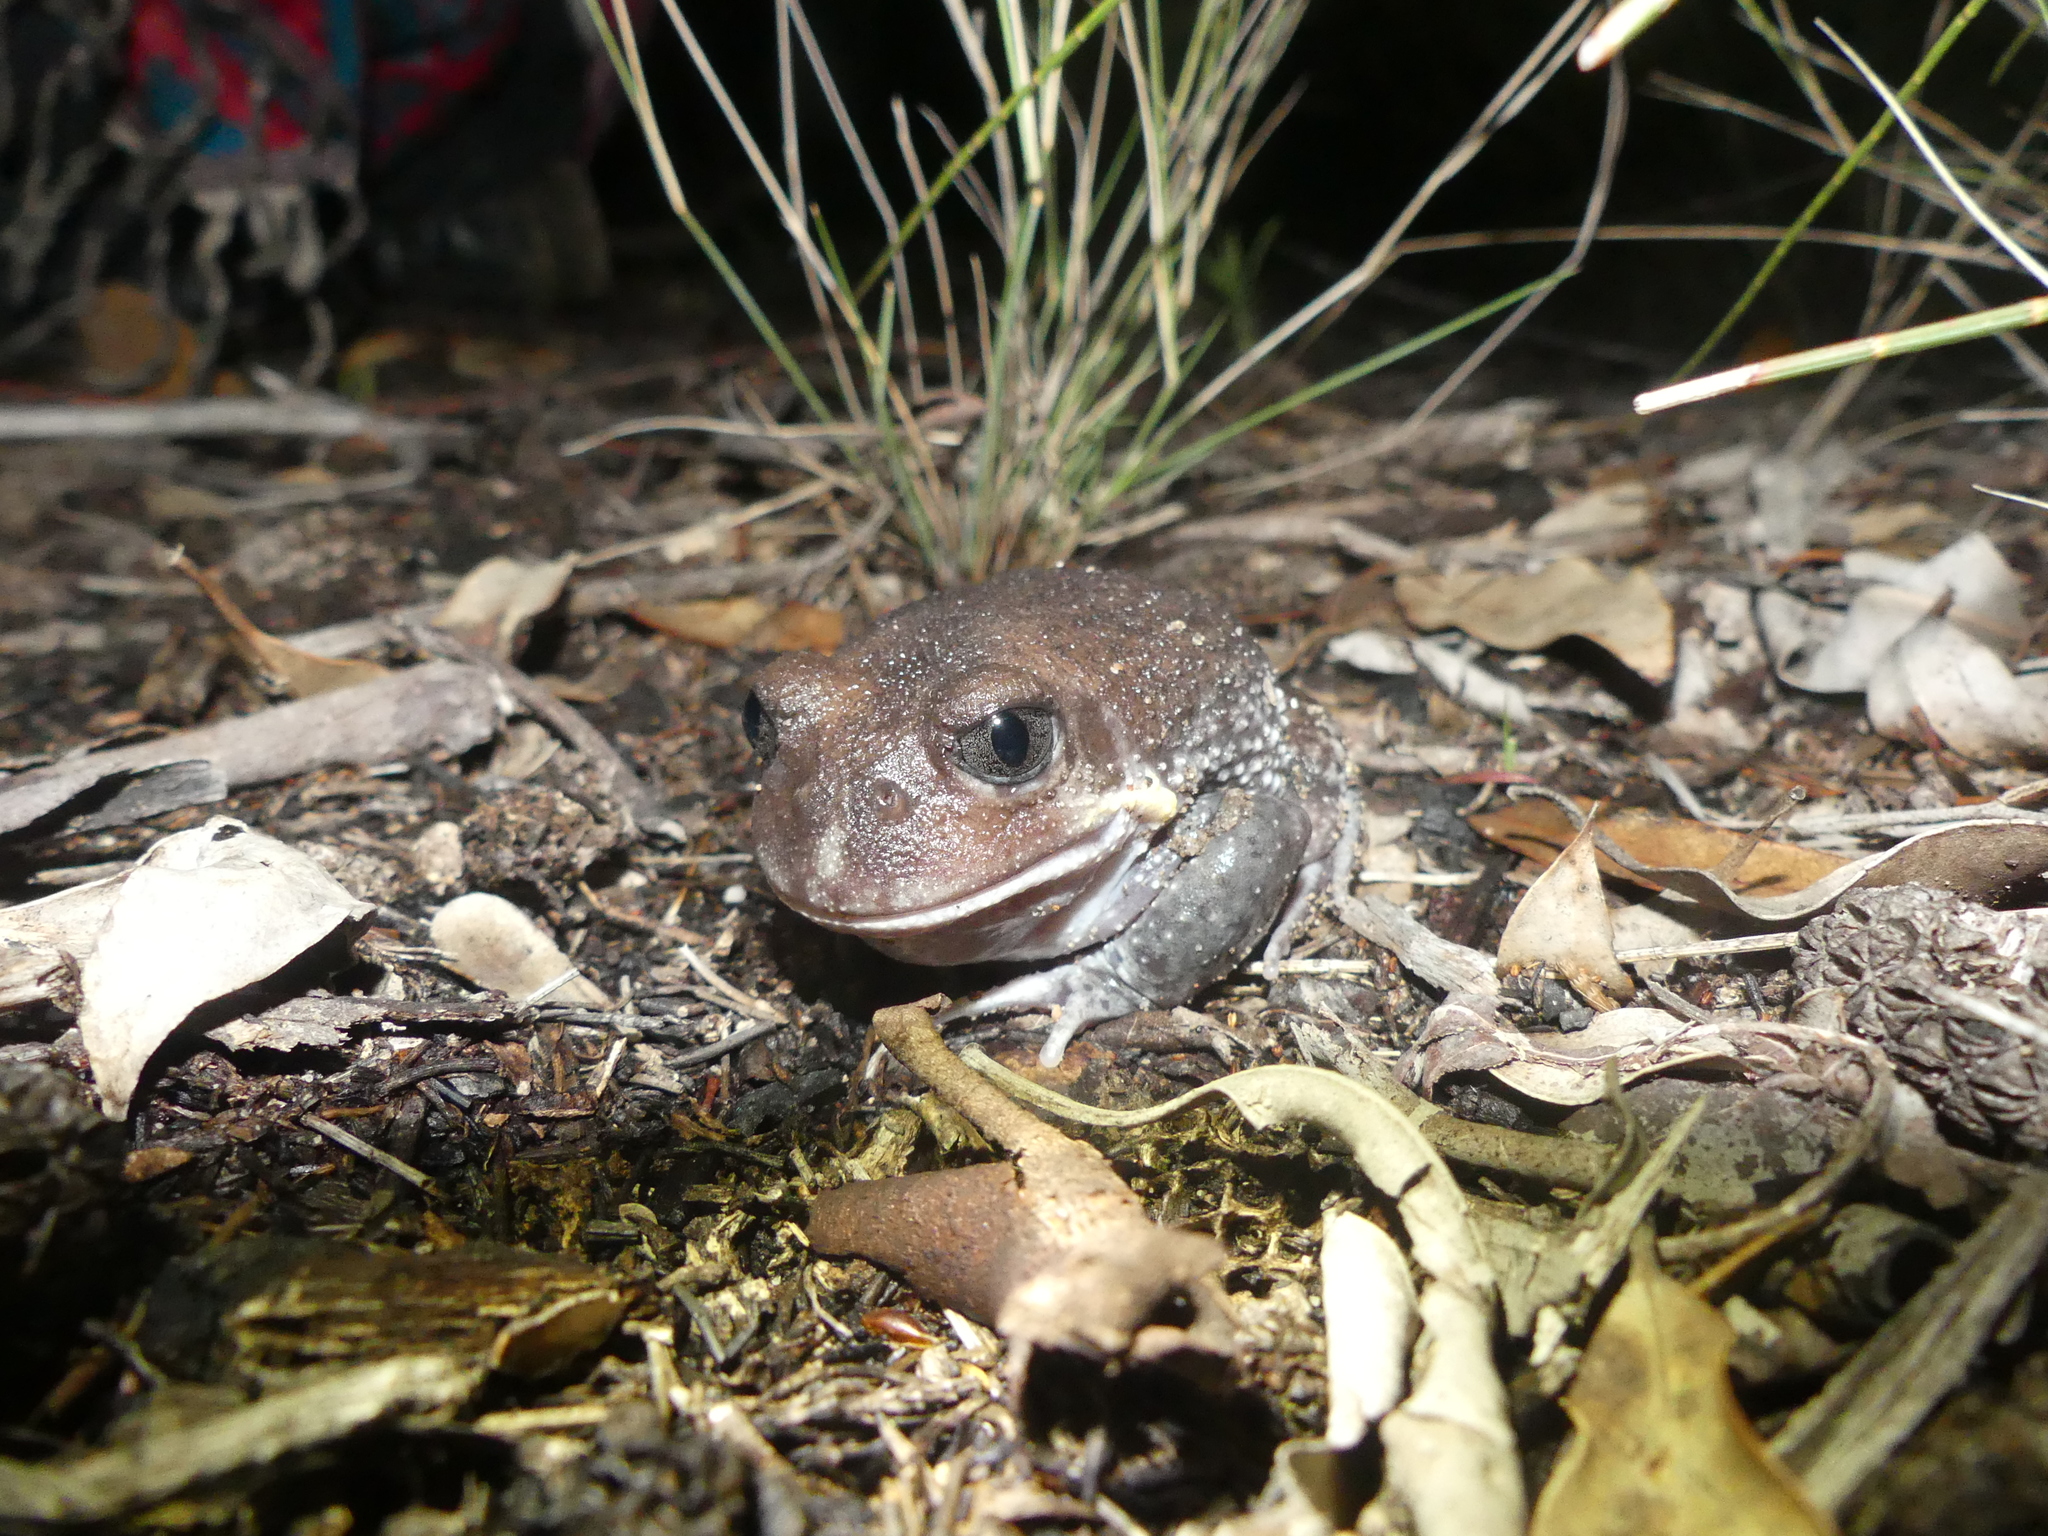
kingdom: Animalia
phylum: Chordata
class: Amphibia
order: Anura
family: Limnodynastidae
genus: Heleioporus
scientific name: Heleioporus australiacus
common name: Eastern owl frog
